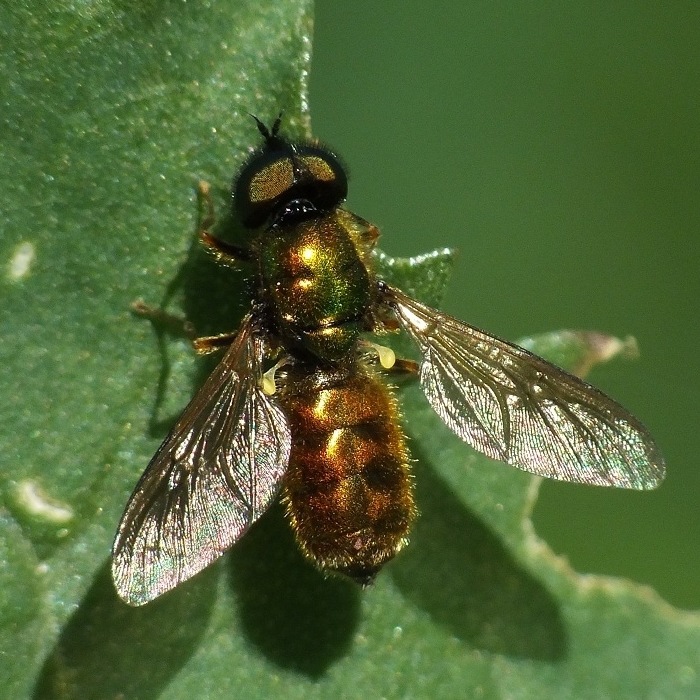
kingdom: Animalia
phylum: Arthropoda
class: Insecta
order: Diptera
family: Stratiomyidae
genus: Chloromyia
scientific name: Chloromyia formosa
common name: Soldier fly
